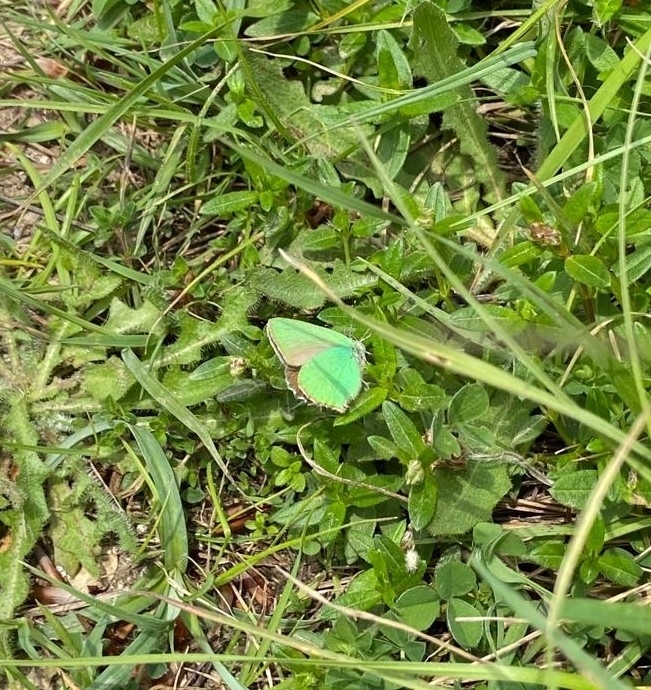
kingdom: Animalia
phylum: Arthropoda
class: Insecta
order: Lepidoptera
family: Lycaenidae
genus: Callophrys
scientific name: Callophrys rubi
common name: Green hairstreak
